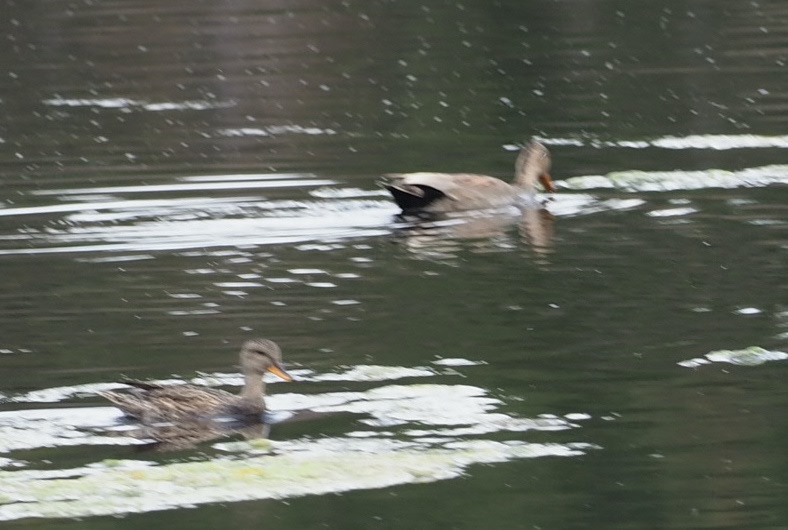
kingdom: Animalia
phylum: Chordata
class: Aves
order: Anseriformes
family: Anatidae
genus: Mareca
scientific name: Mareca strepera
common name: Gadwall
